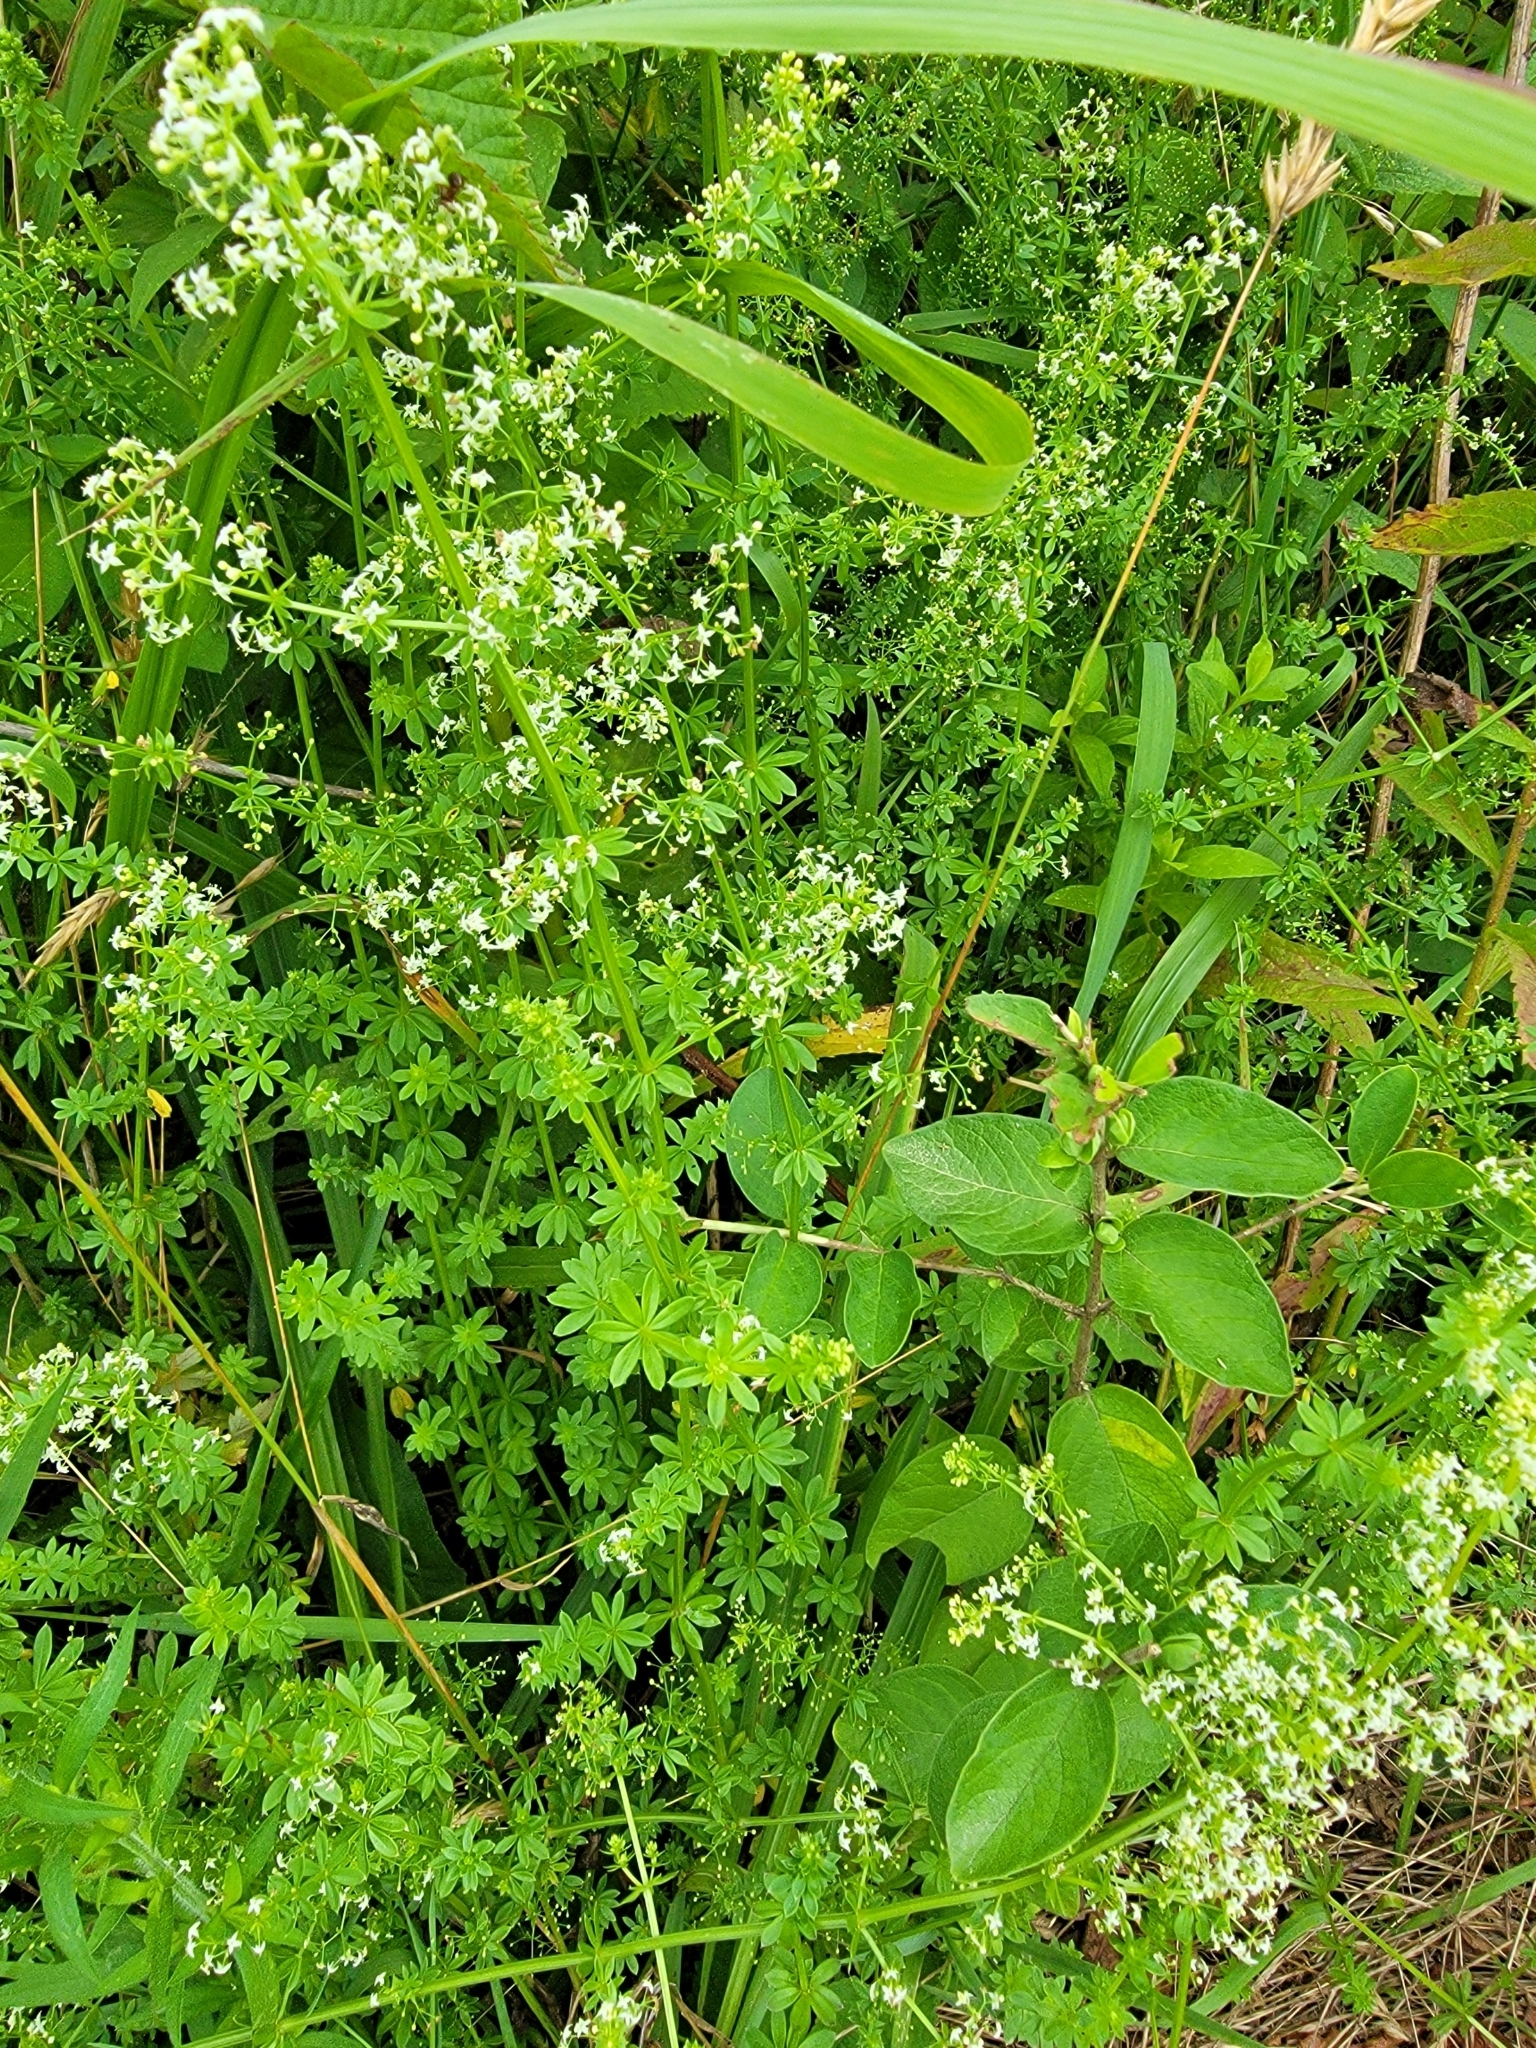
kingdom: Plantae
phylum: Tracheophyta
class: Magnoliopsida
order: Gentianales
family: Rubiaceae
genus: Galium
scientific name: Galium mollugo
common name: Hedge bedstraw
